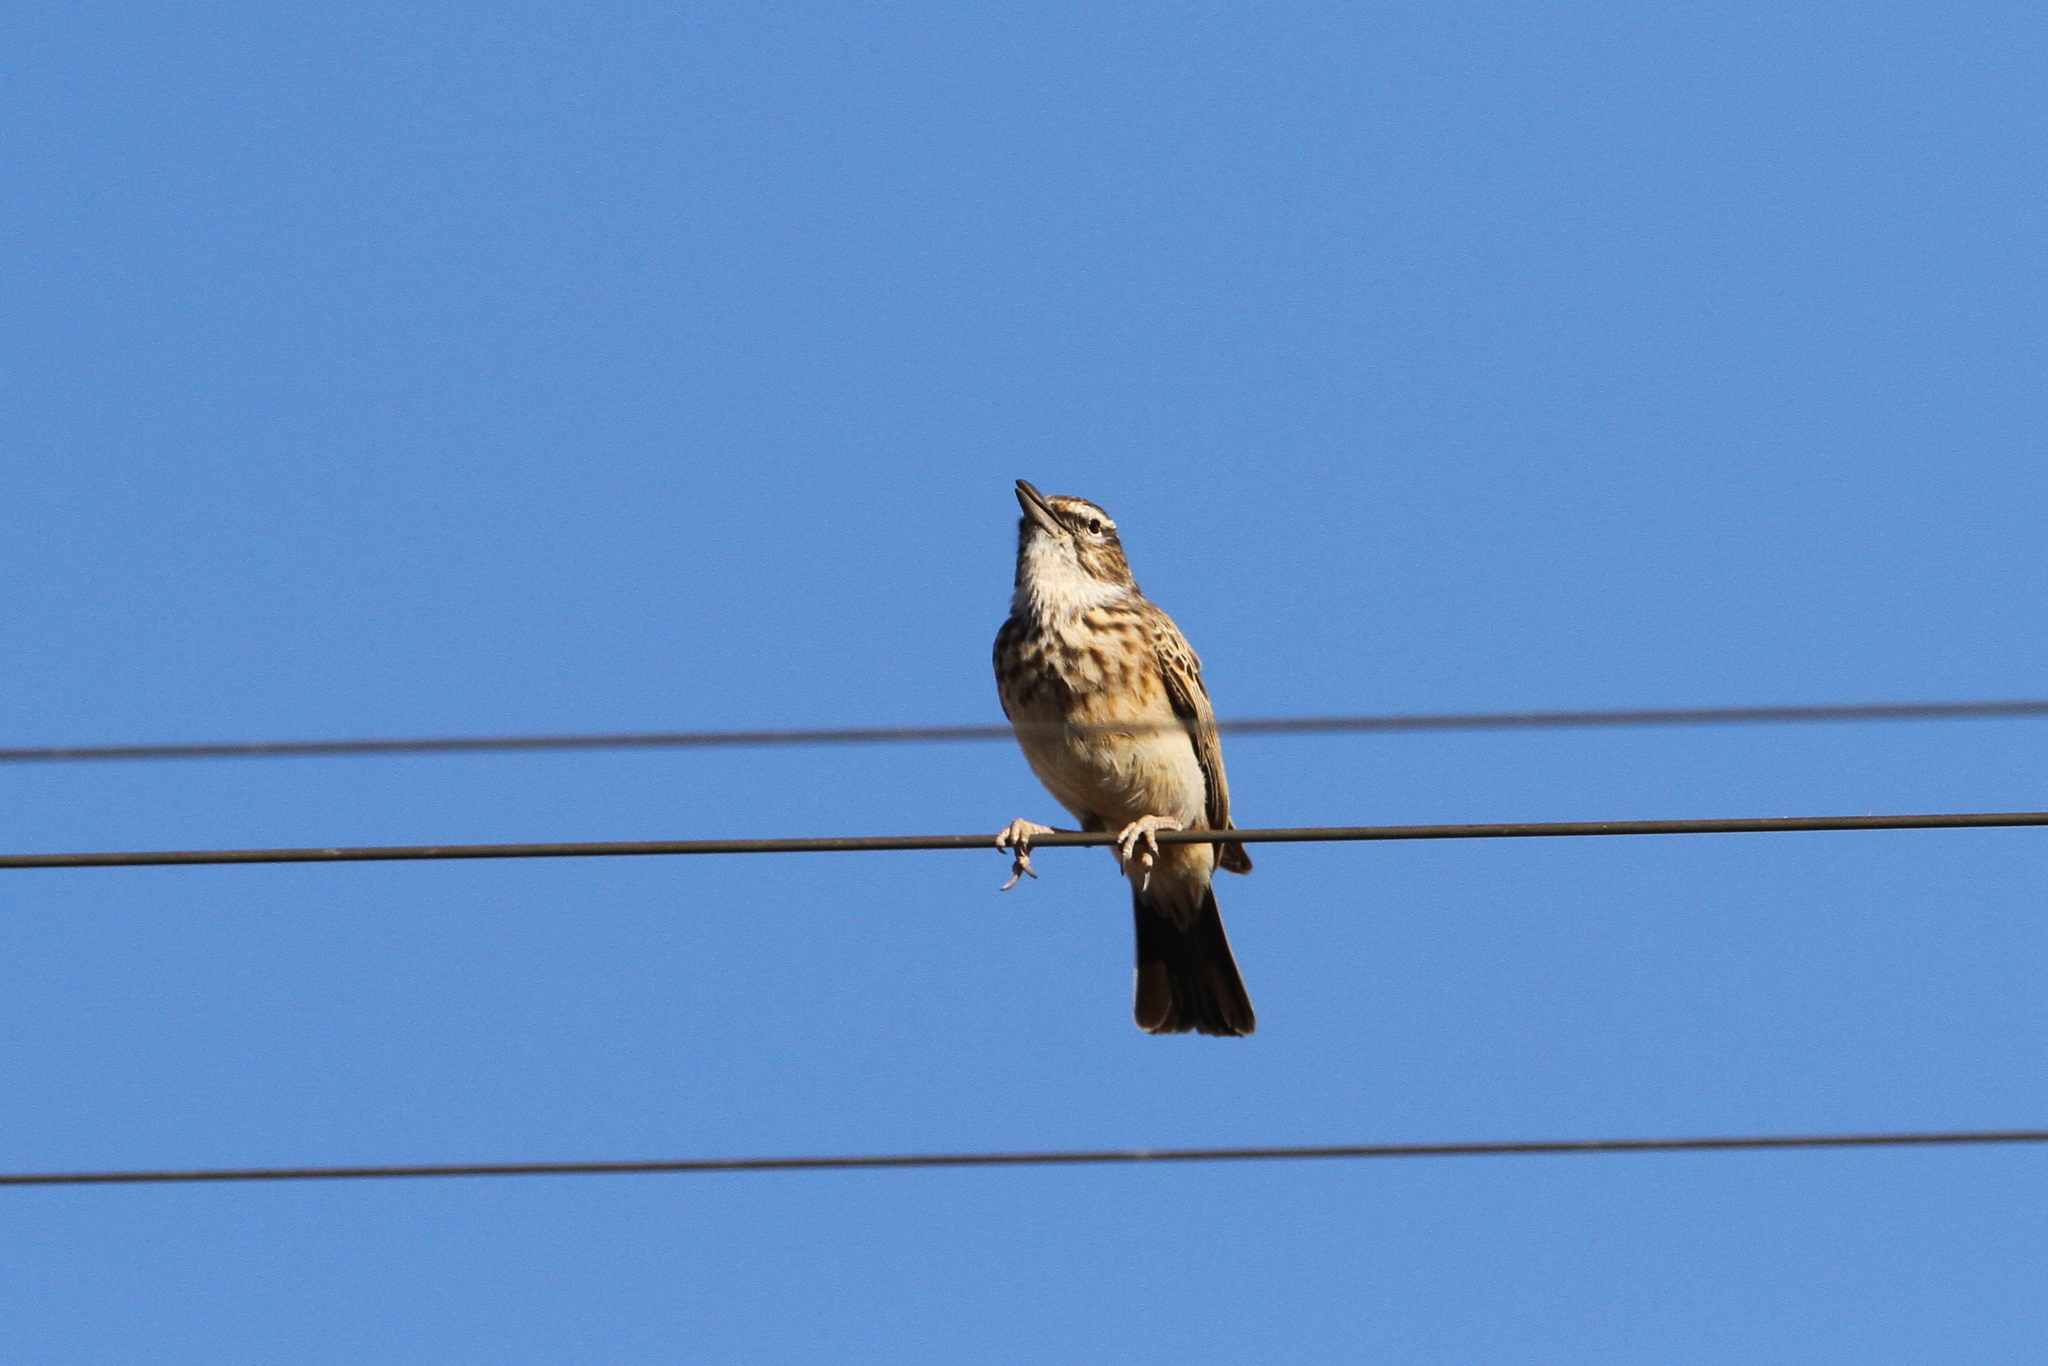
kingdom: Animalia
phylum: Chordata
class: Aves
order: Passeriformes
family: Alaudidae
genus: Calendulauda
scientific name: Calendulauda sabota
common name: Sabota lark
